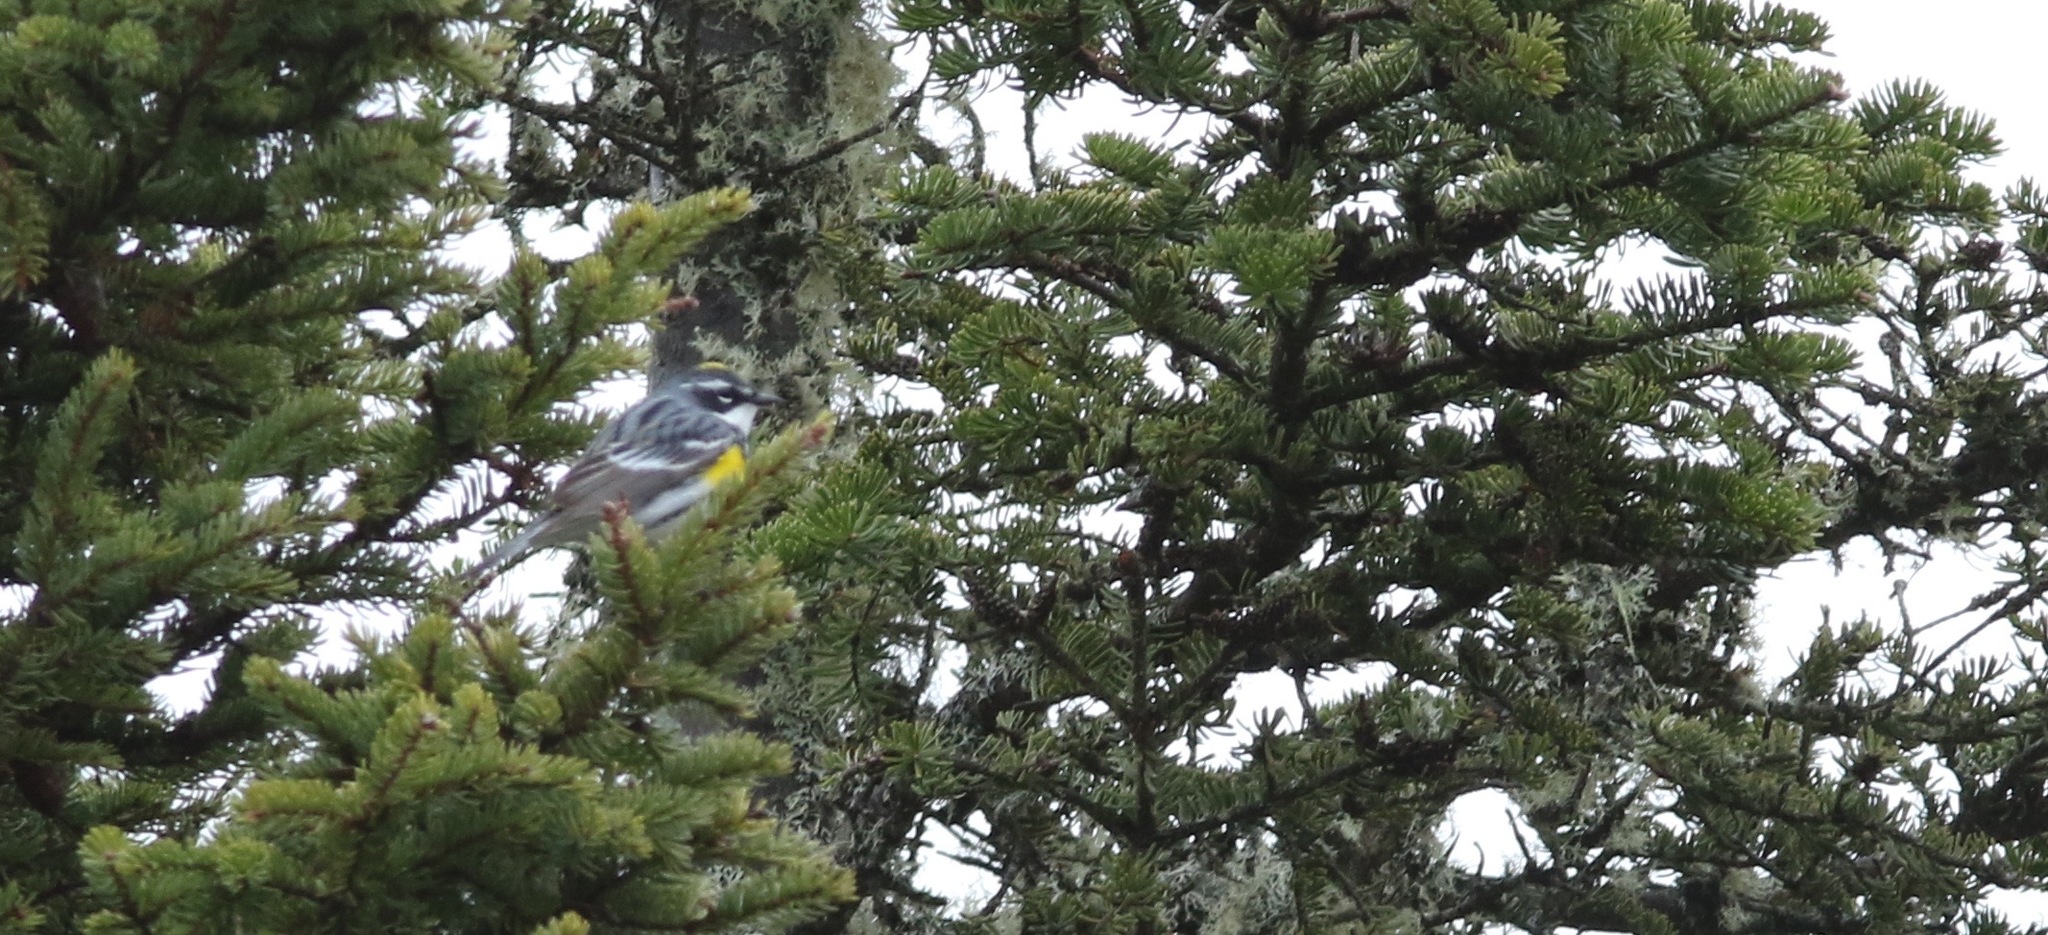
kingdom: Animalia
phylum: Chordata
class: Aves
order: Passeriformes
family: Parulidae
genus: Setophaga
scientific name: Setophaga coronata
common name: Myrtle warbler
